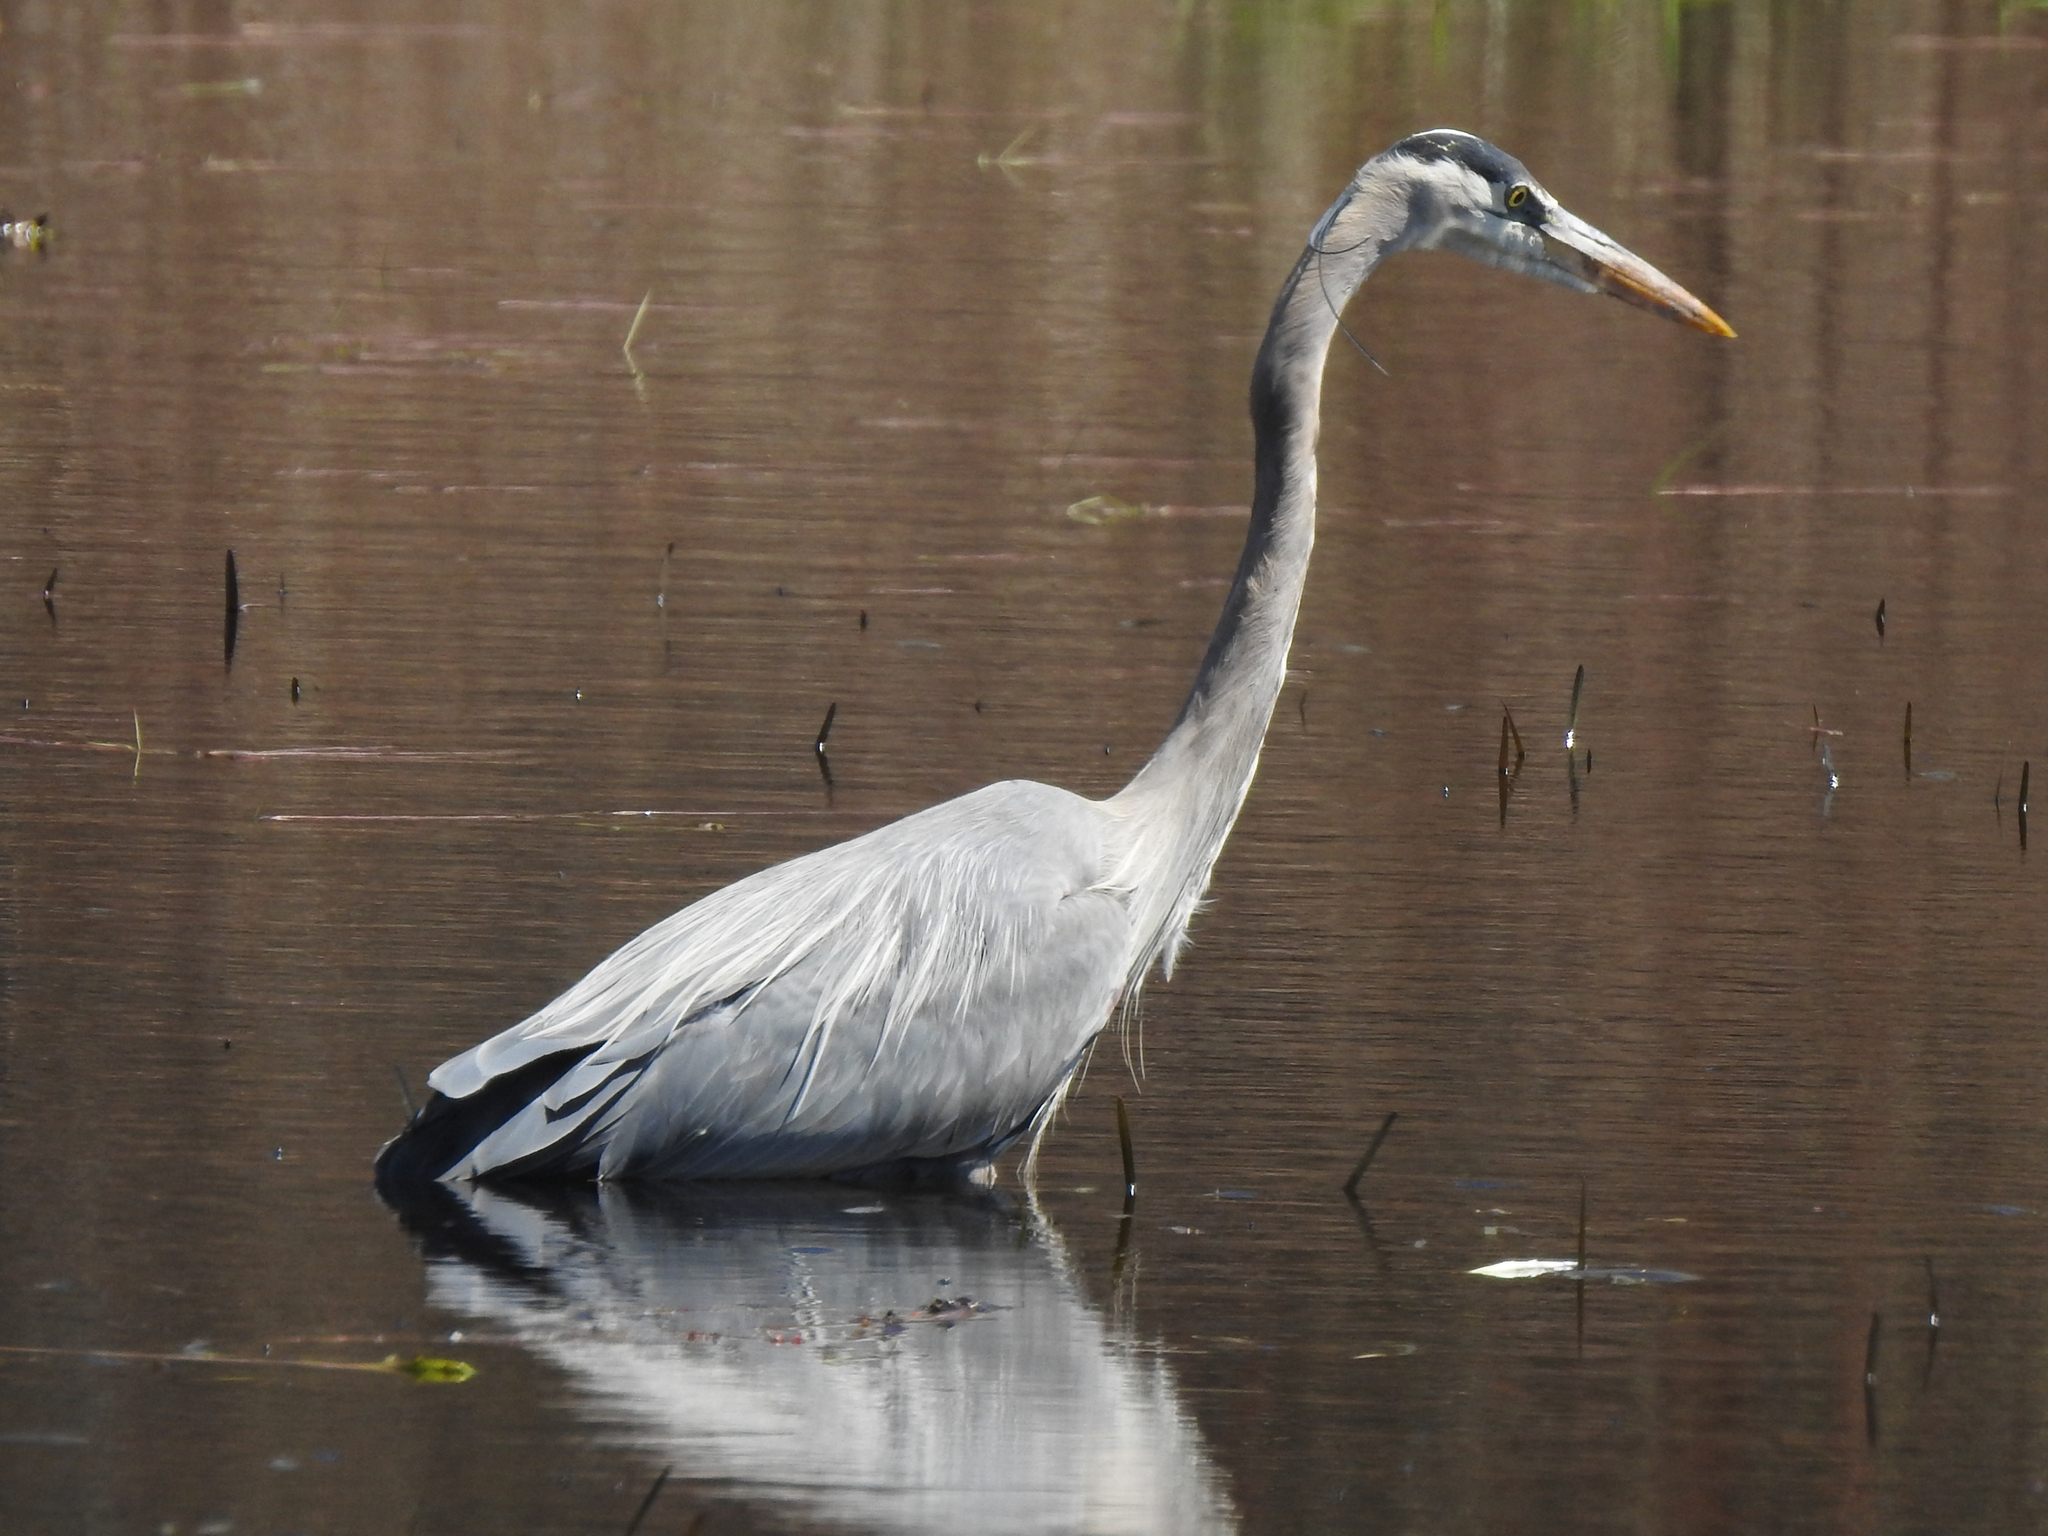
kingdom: Animalia
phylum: Chordata
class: Aves
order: Pelecaniformes
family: Ardeidae
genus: Ardea
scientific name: Ardea herodias
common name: Great blue heron
